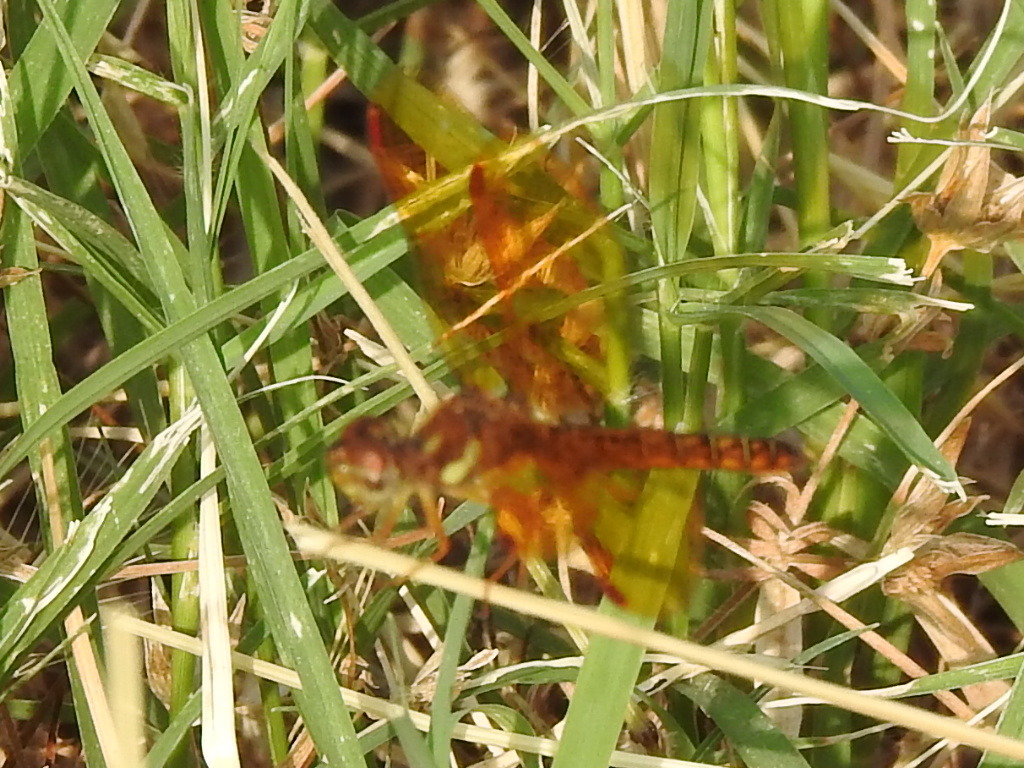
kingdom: Animalia
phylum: Arthropoda
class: Insecta
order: Odonata
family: Libellulidae
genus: Perithemis
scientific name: Perithemis tenera
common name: Eastern amberwing
